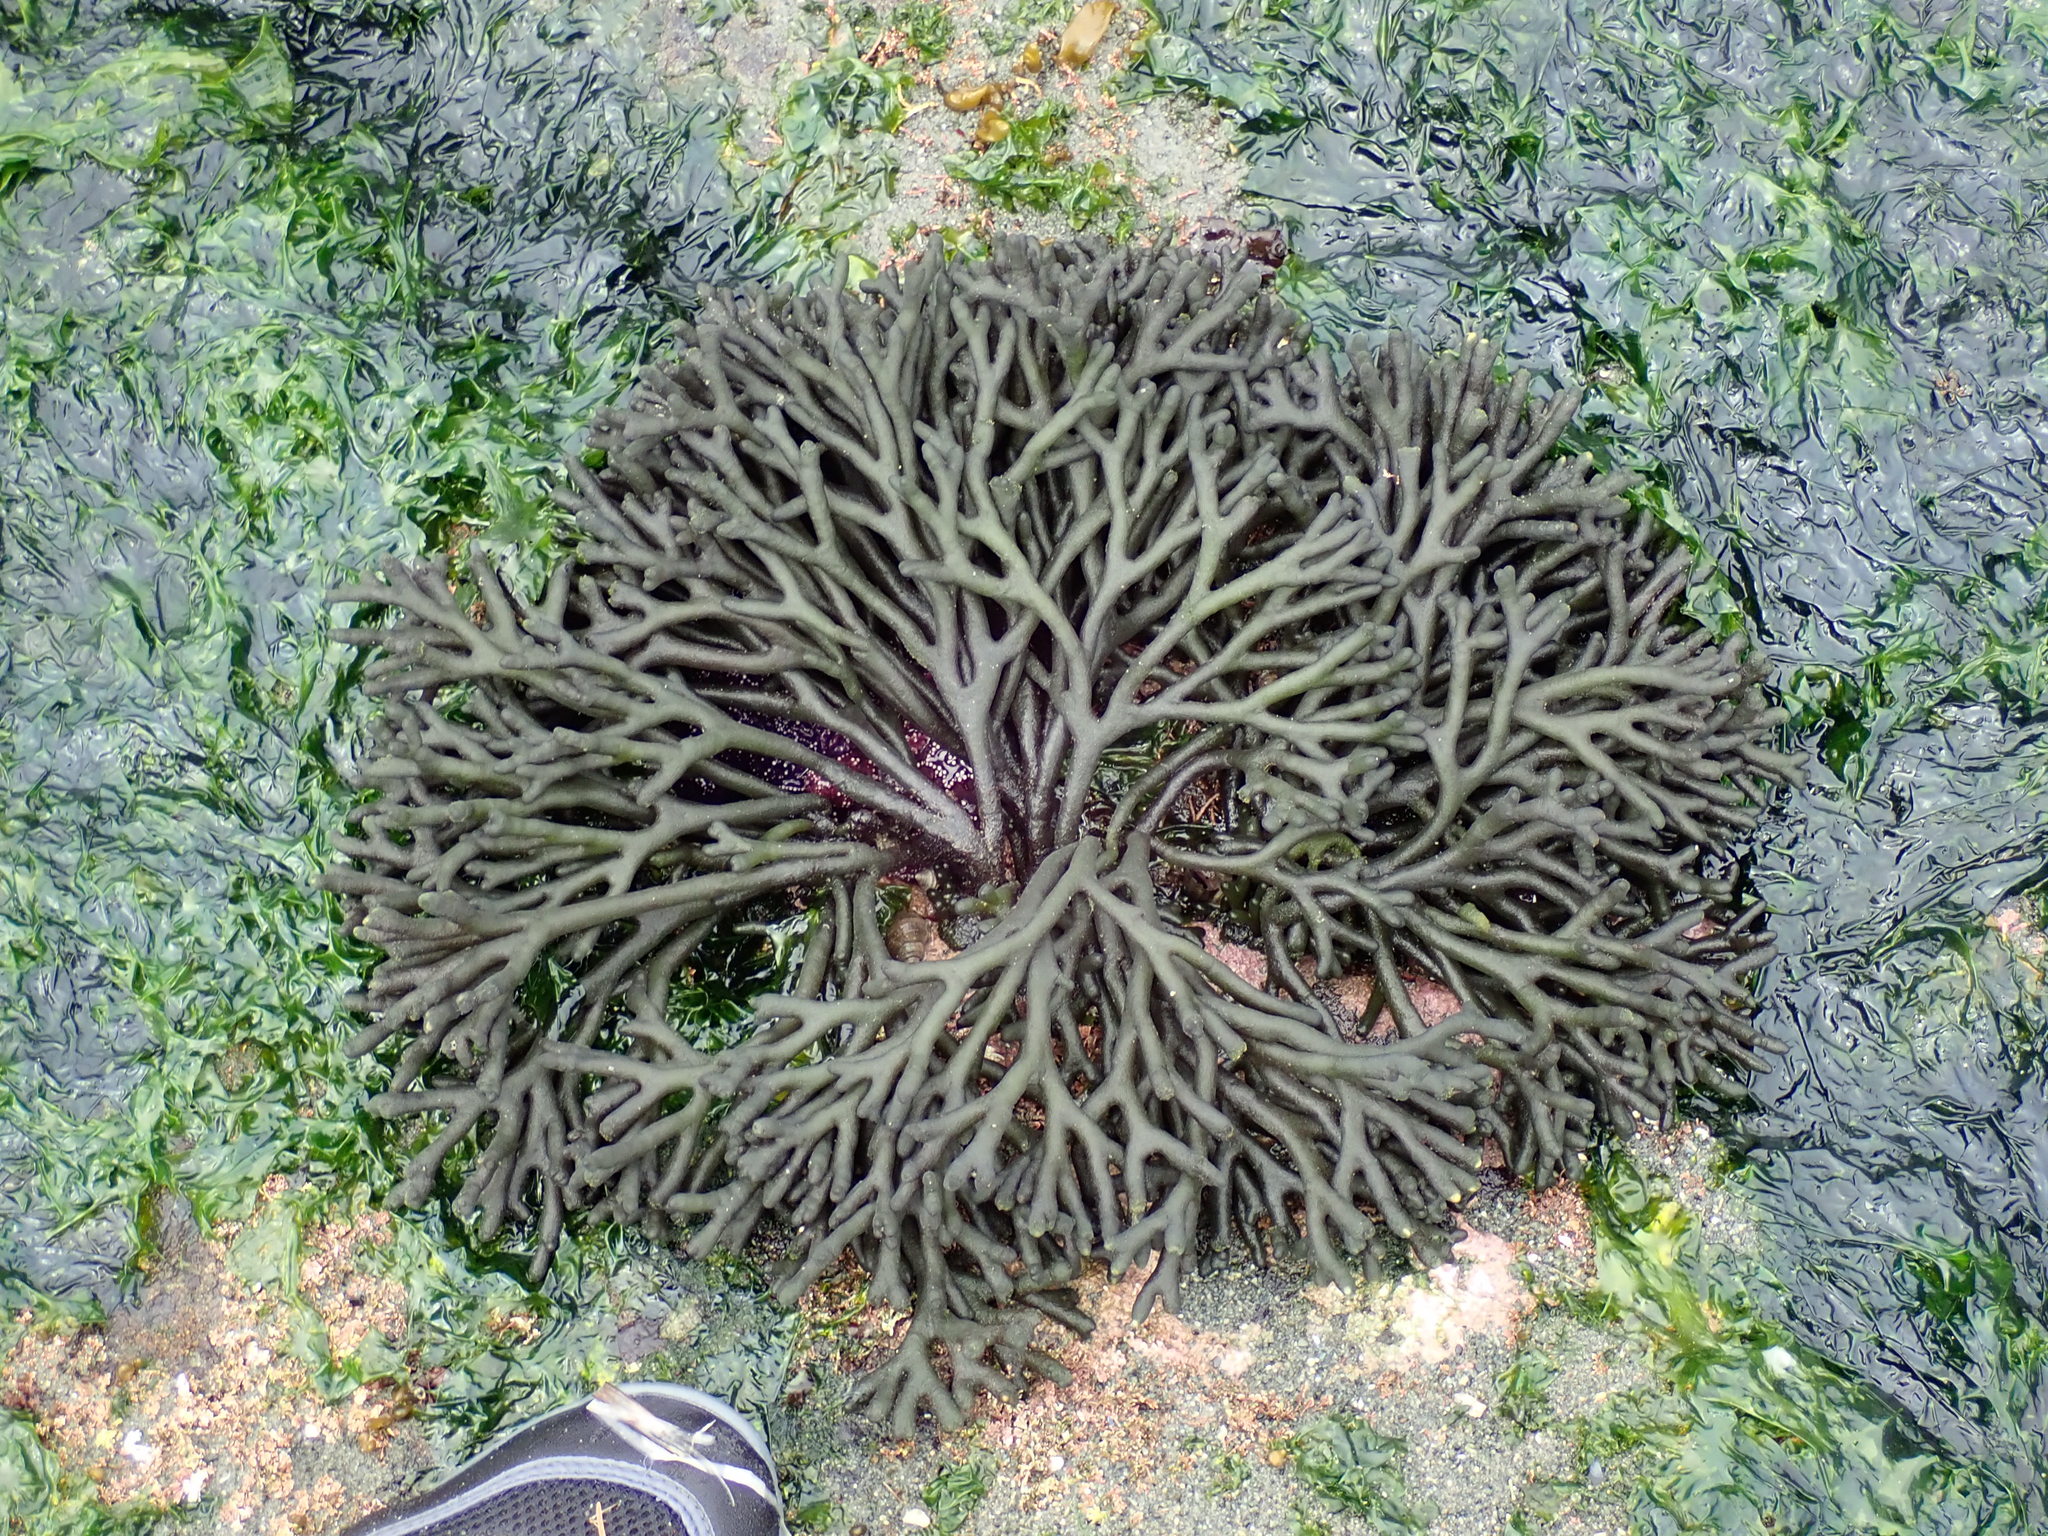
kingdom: Plantae
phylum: Chlorophyta
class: Ulvophyceae
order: Bryopsidales
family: Codiaceae
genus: Codium
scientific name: Codium fragile
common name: Dead man's fingers
